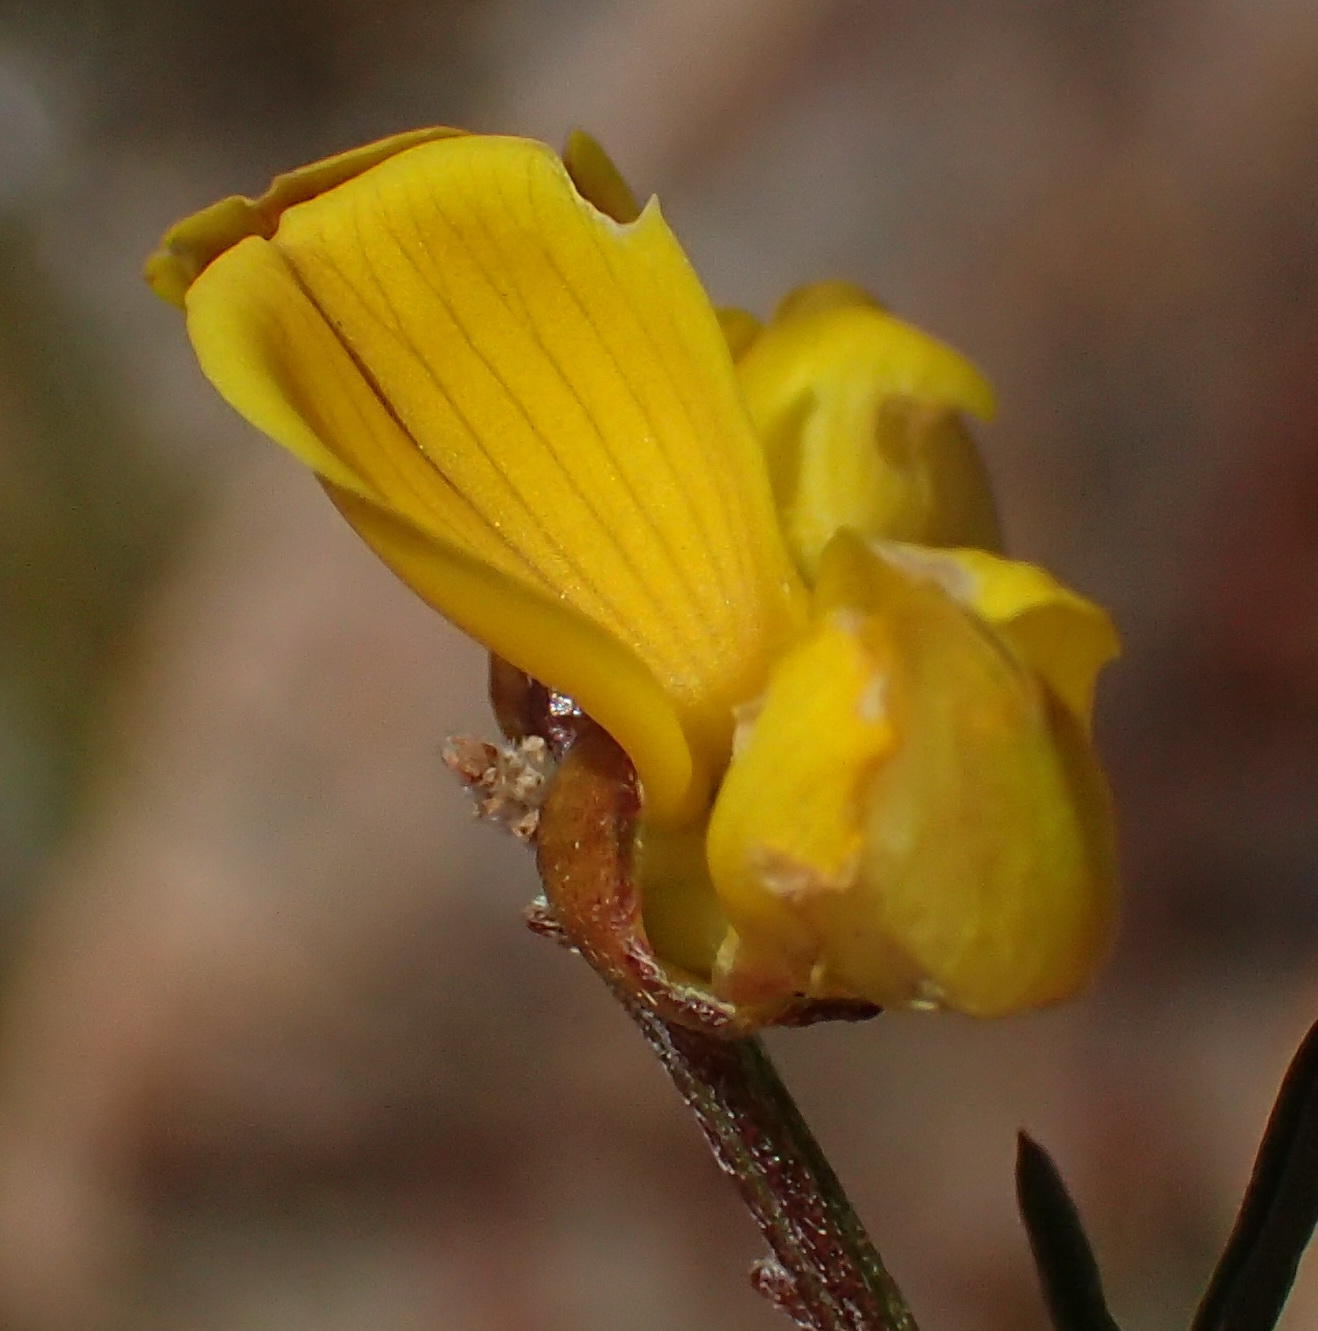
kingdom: Plantae
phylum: Tracheophyta
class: Magnoliopsida
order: Fabales
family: Fabaceae
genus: Wiborgiella
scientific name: Wiborgiella mucronata
